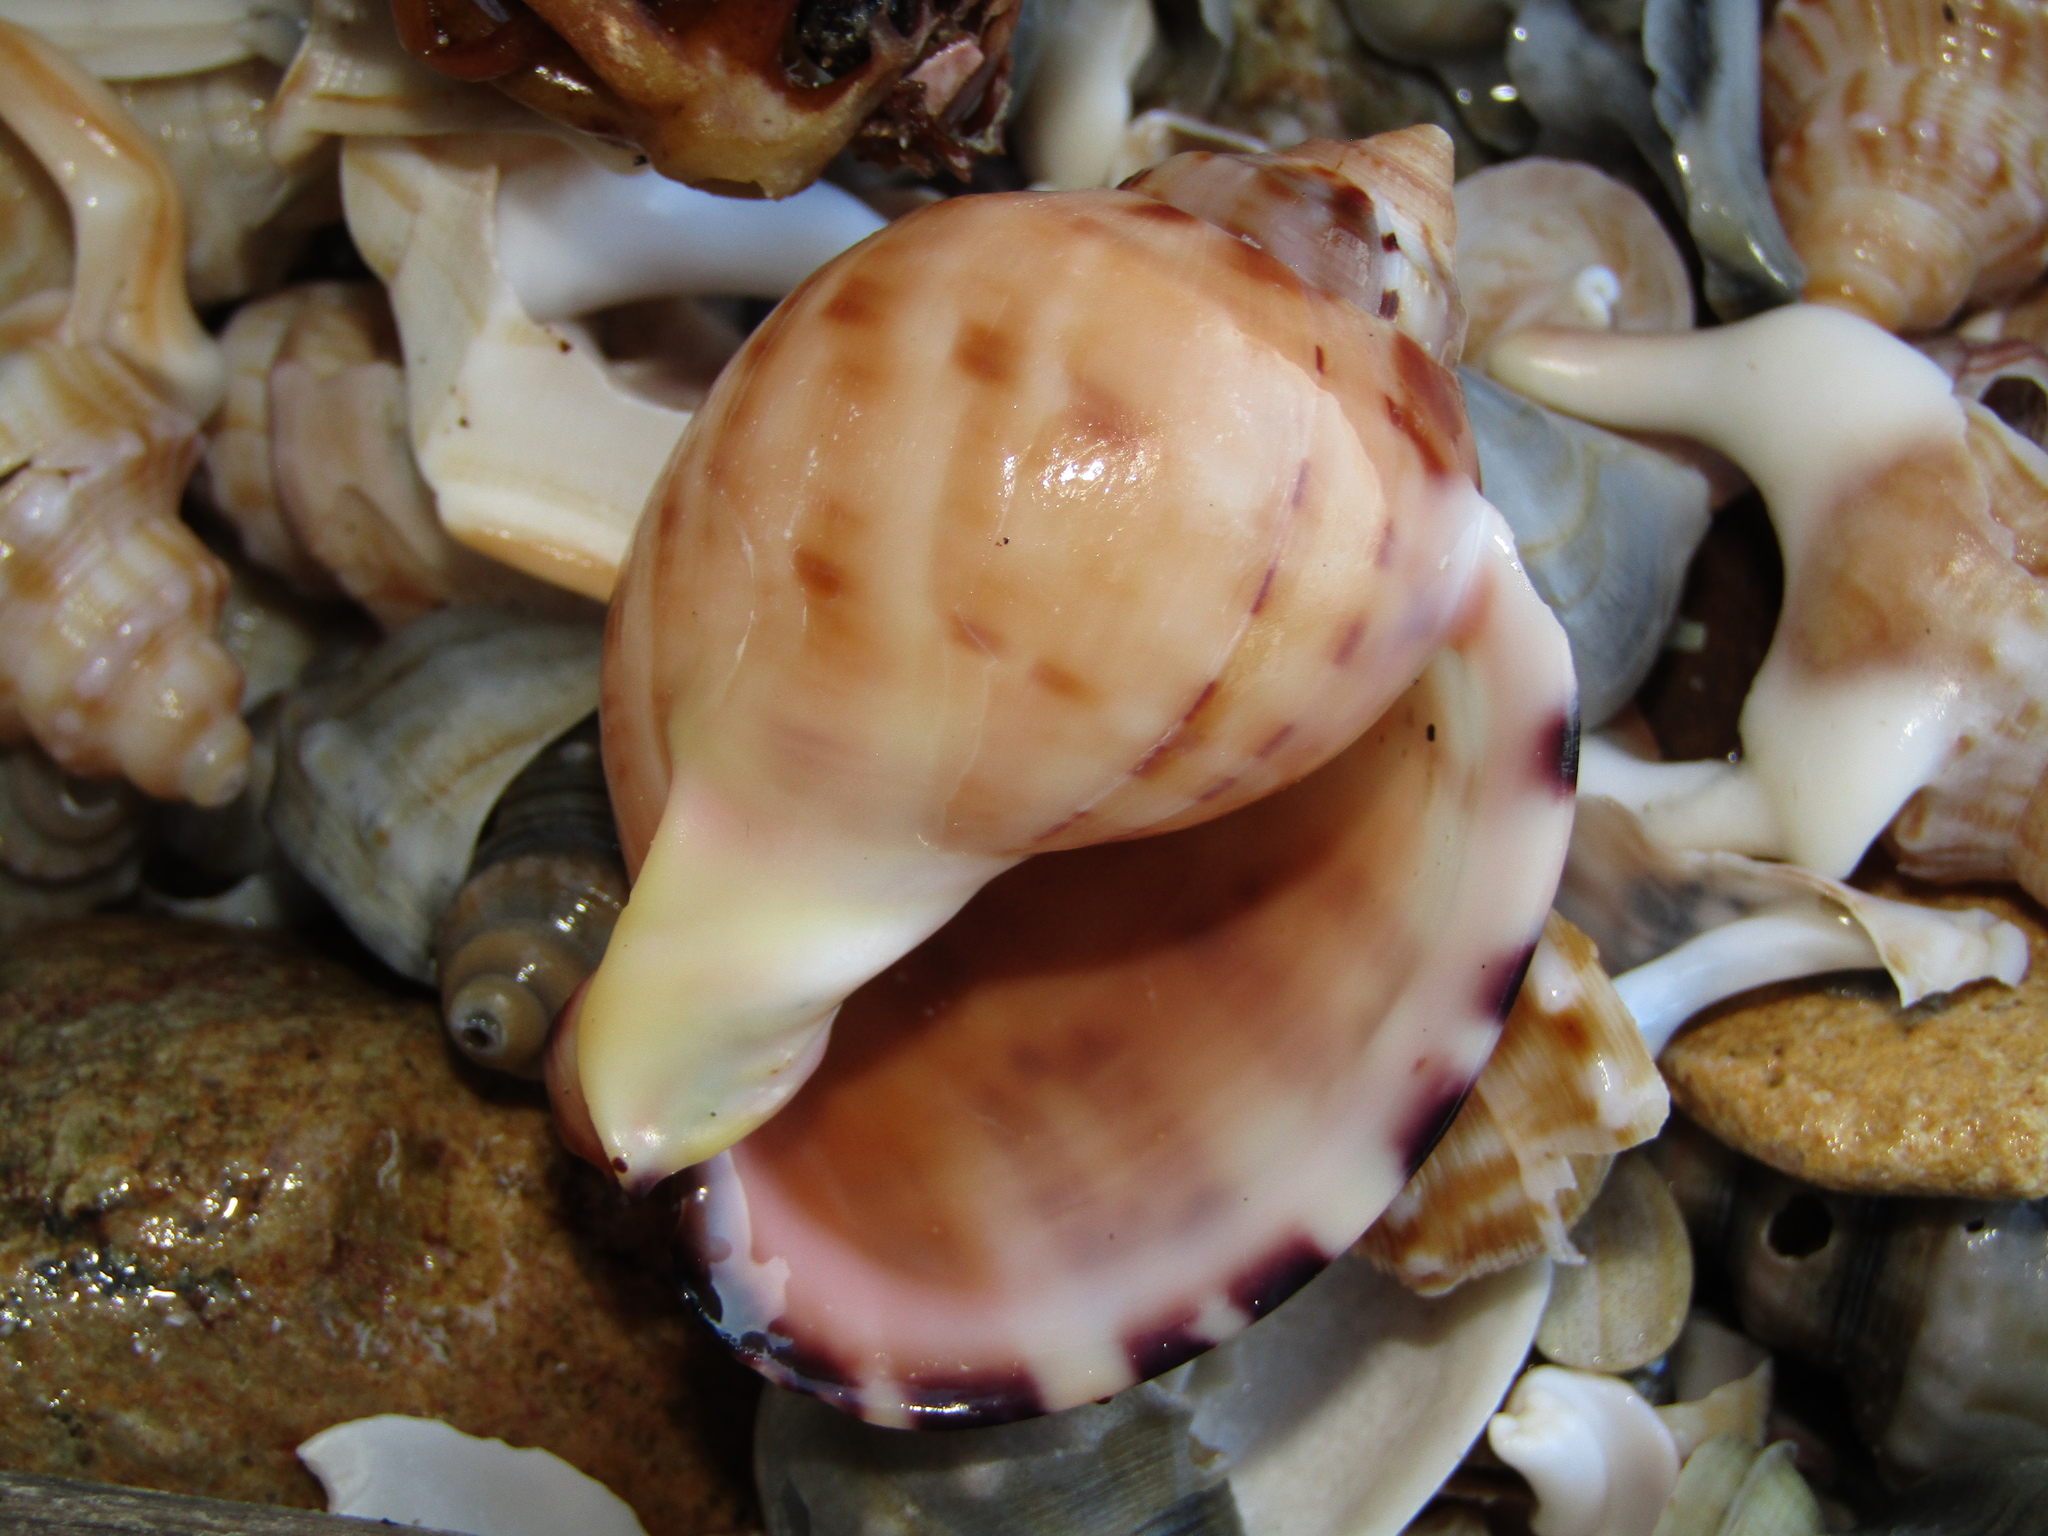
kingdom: Animalia
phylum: Mollusca
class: Gastropoda
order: Littorinimorpha
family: Cassidae
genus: Semicassis
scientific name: Semicassis pyrum
